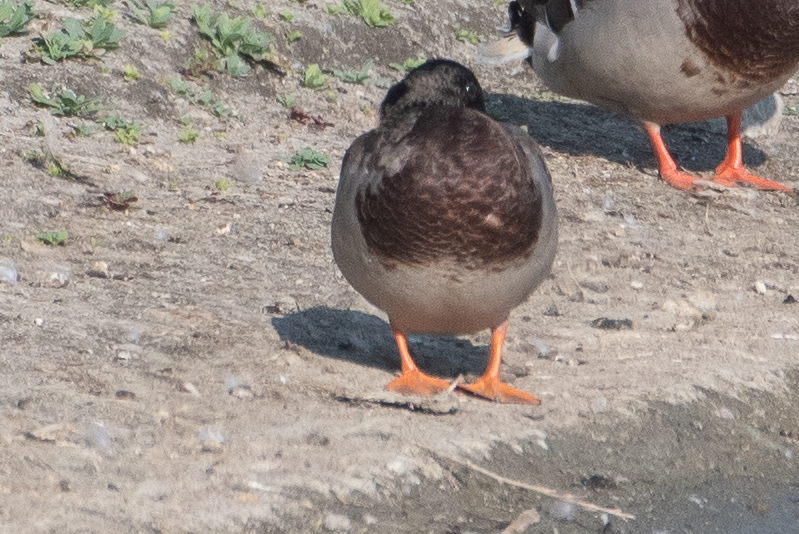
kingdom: Animalia
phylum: Chordata
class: Aves
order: Anseriformes
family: Anatidae
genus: Anas
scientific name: Anas platyrhynchos
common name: Mallard
